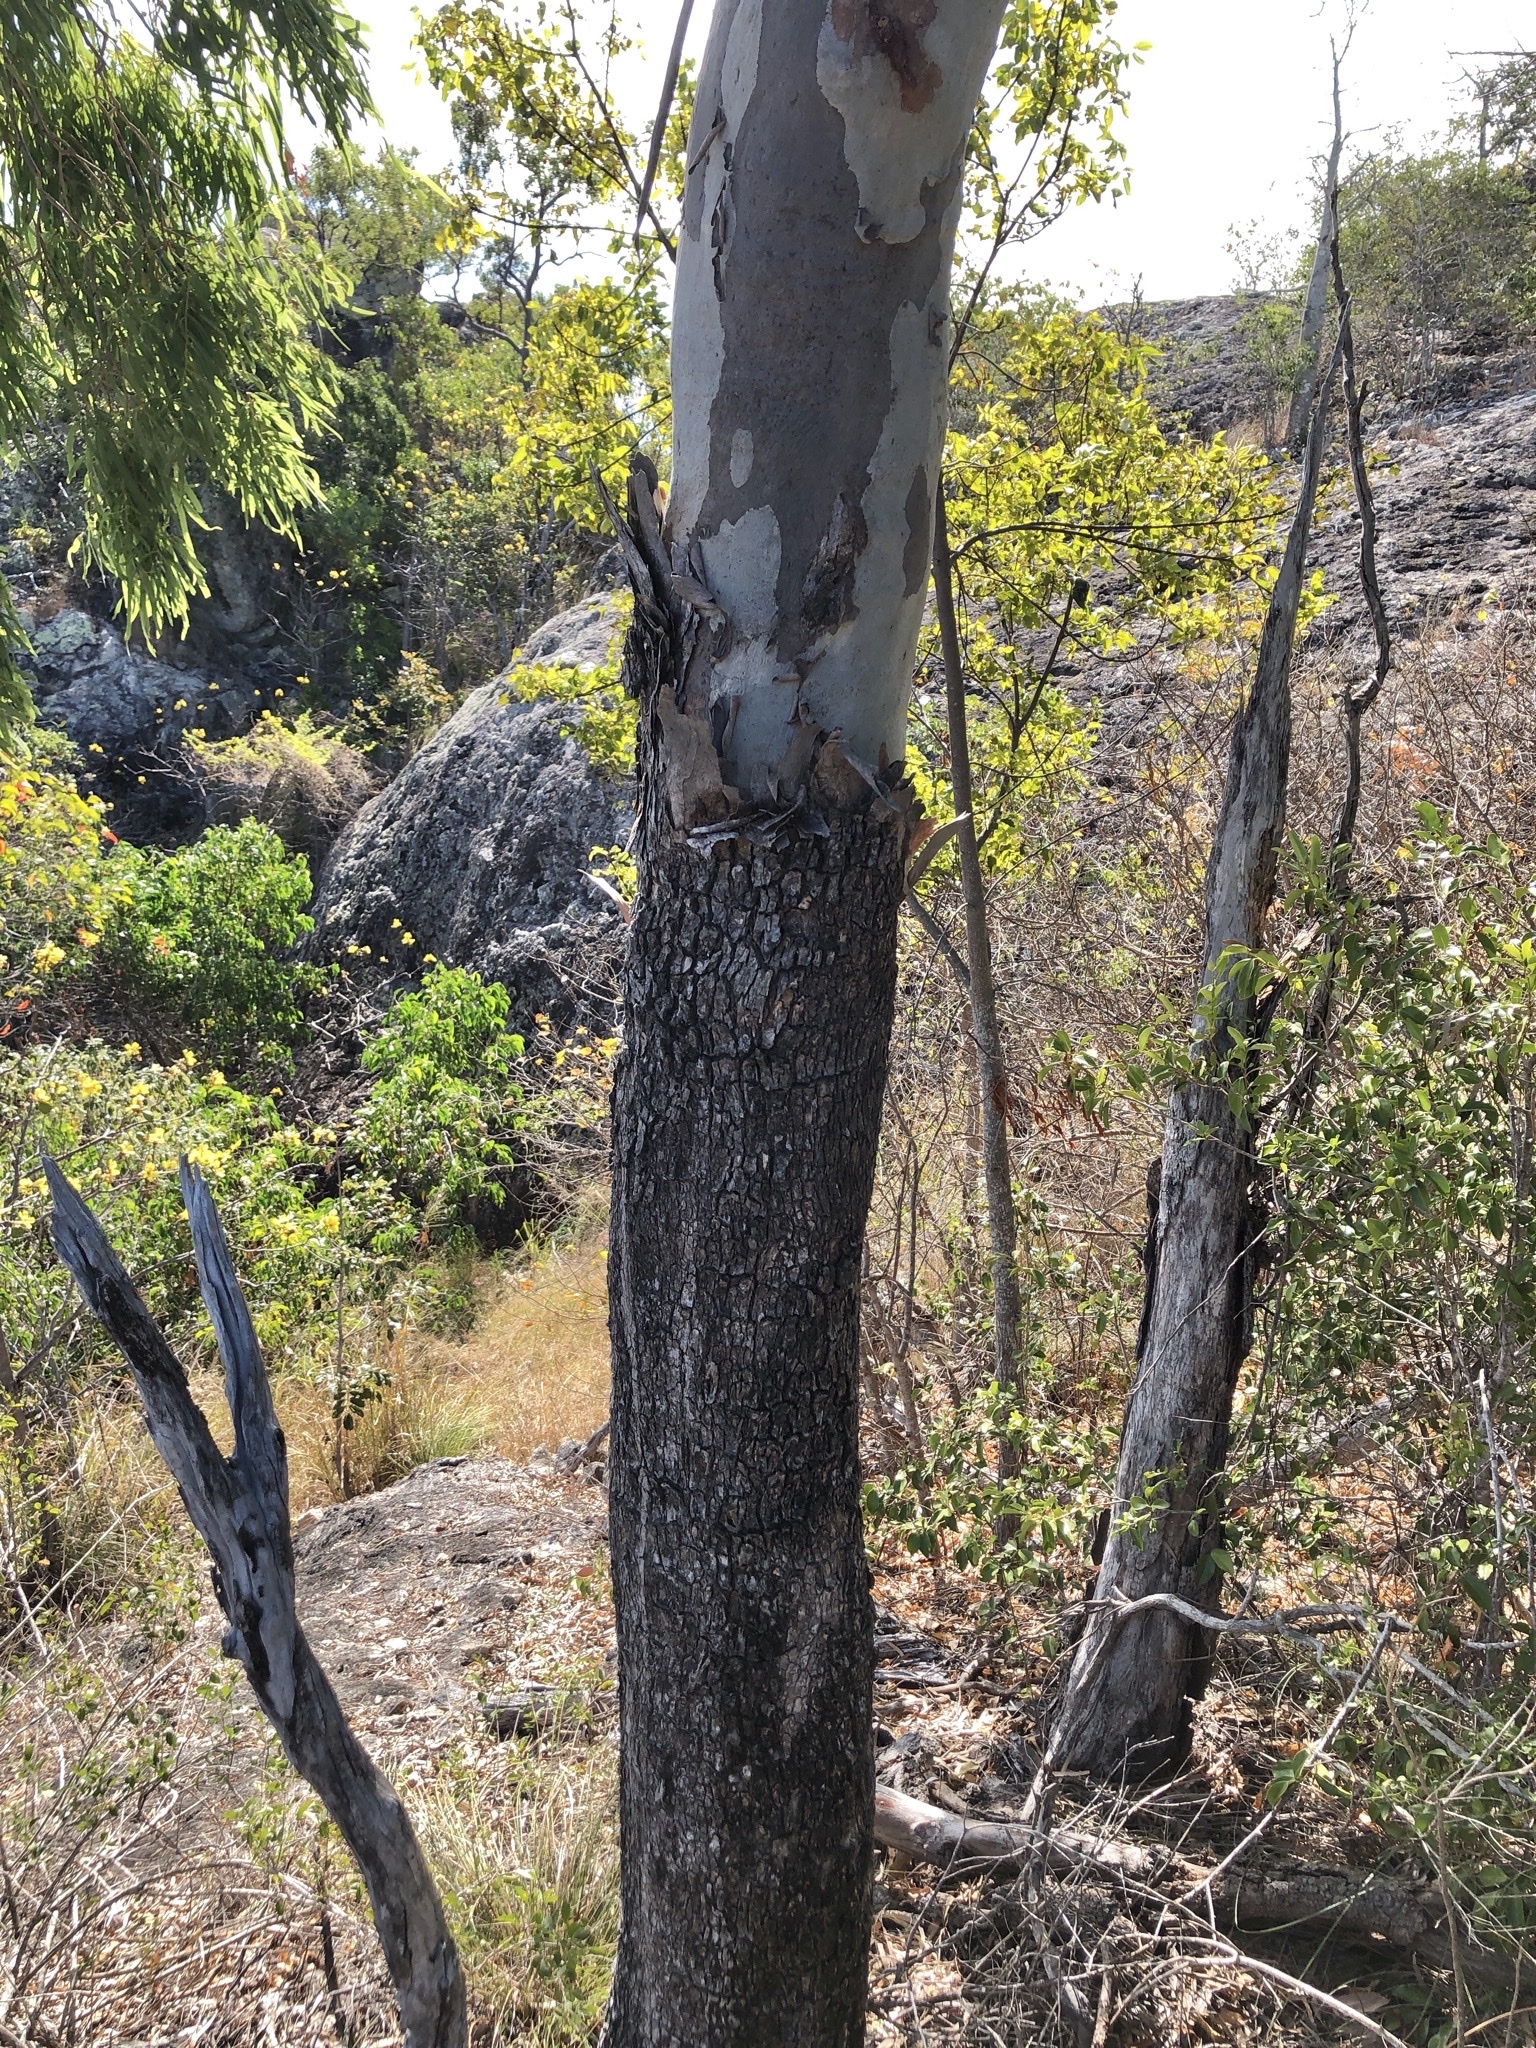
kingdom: Plantae
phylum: Tracheophyta
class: Magnoliopsida
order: Myrtales
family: Myrtaceae
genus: Corymbia
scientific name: Corymbia tessellaris
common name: Carbeen
